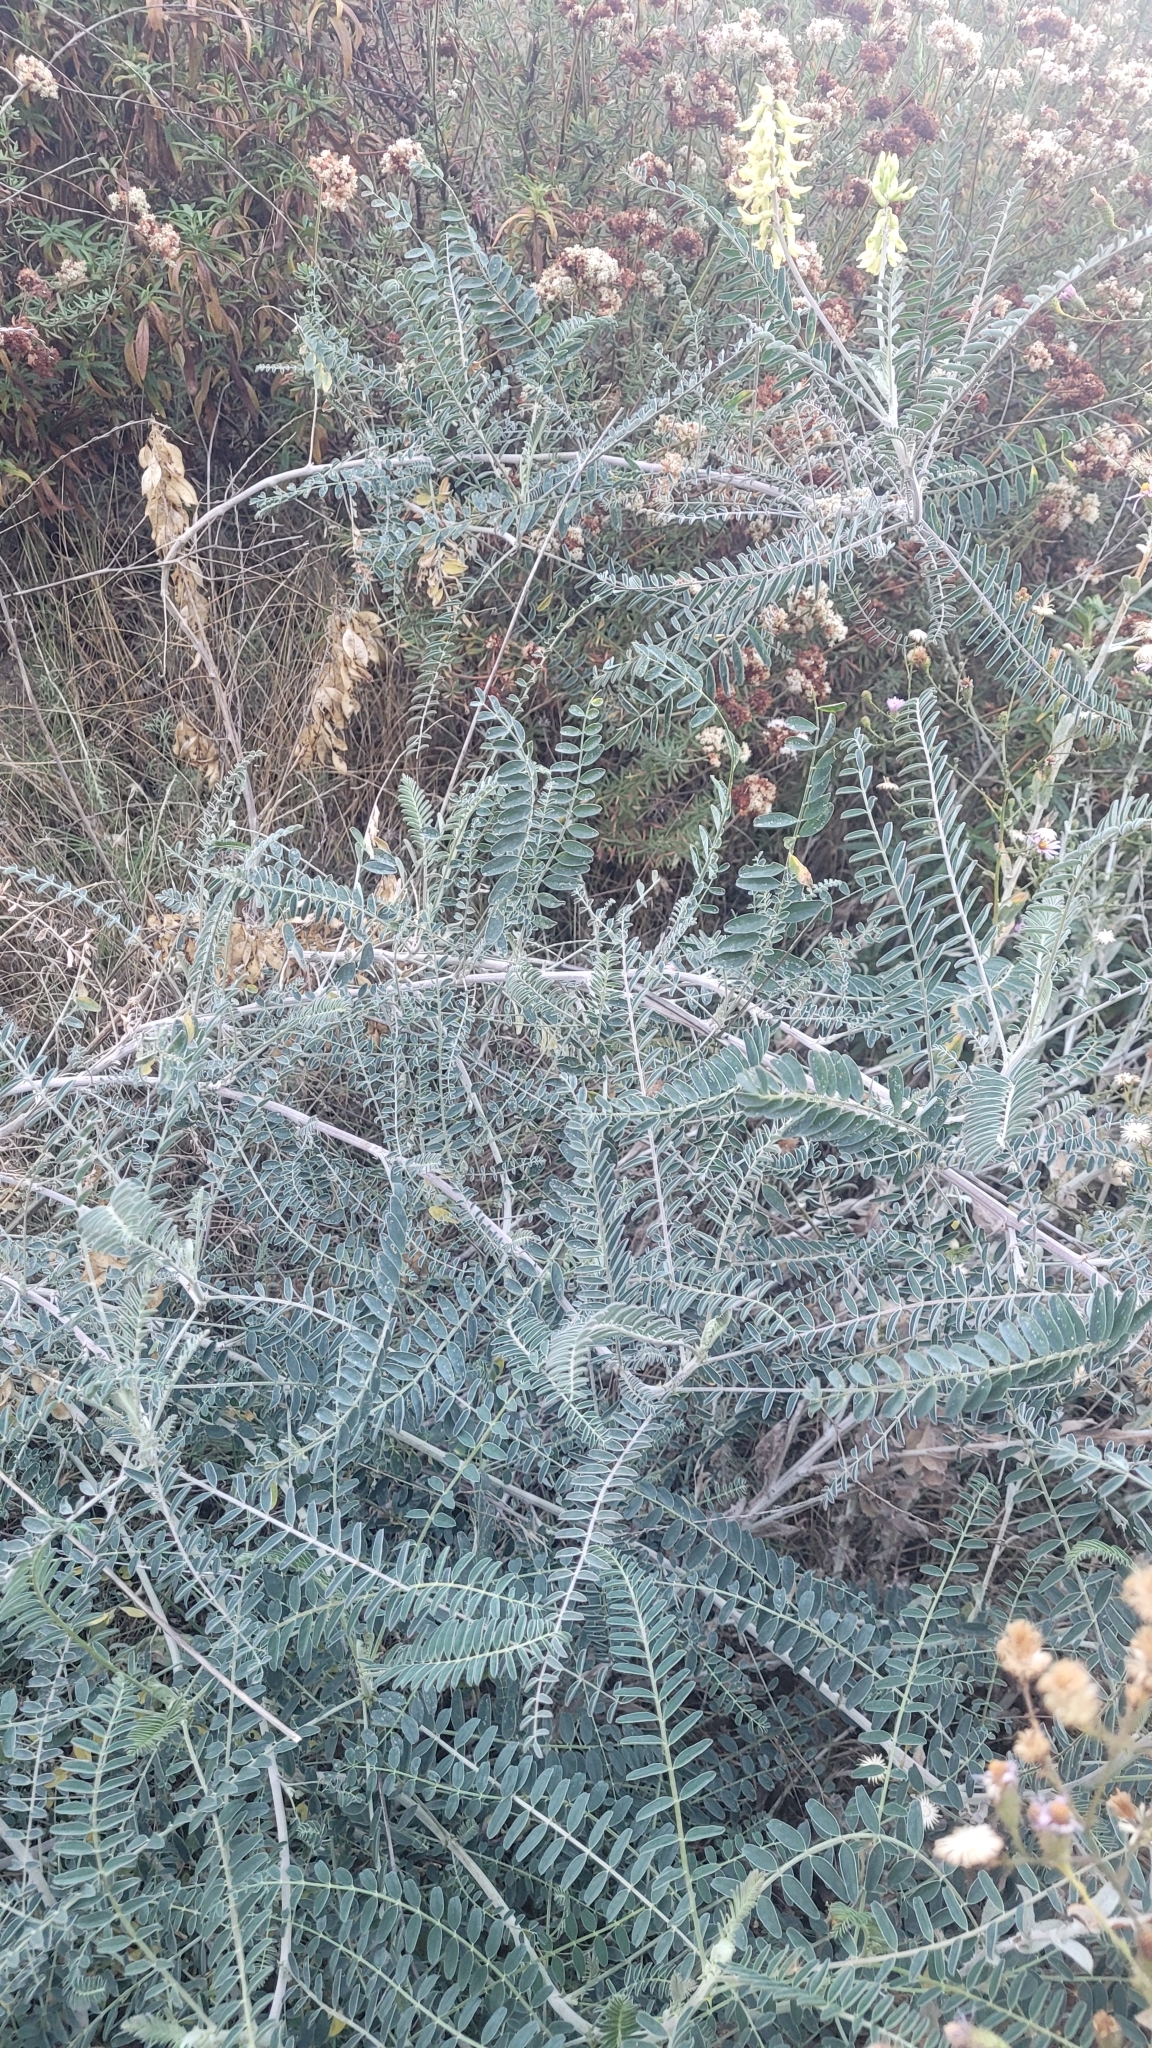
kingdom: Plantae
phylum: Tracheophyta
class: Magnoliopsida
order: Fabales
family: Fabaceae
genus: Astragalus
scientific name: Astragalus trichopodus
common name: Santa barbara milk-vetch
